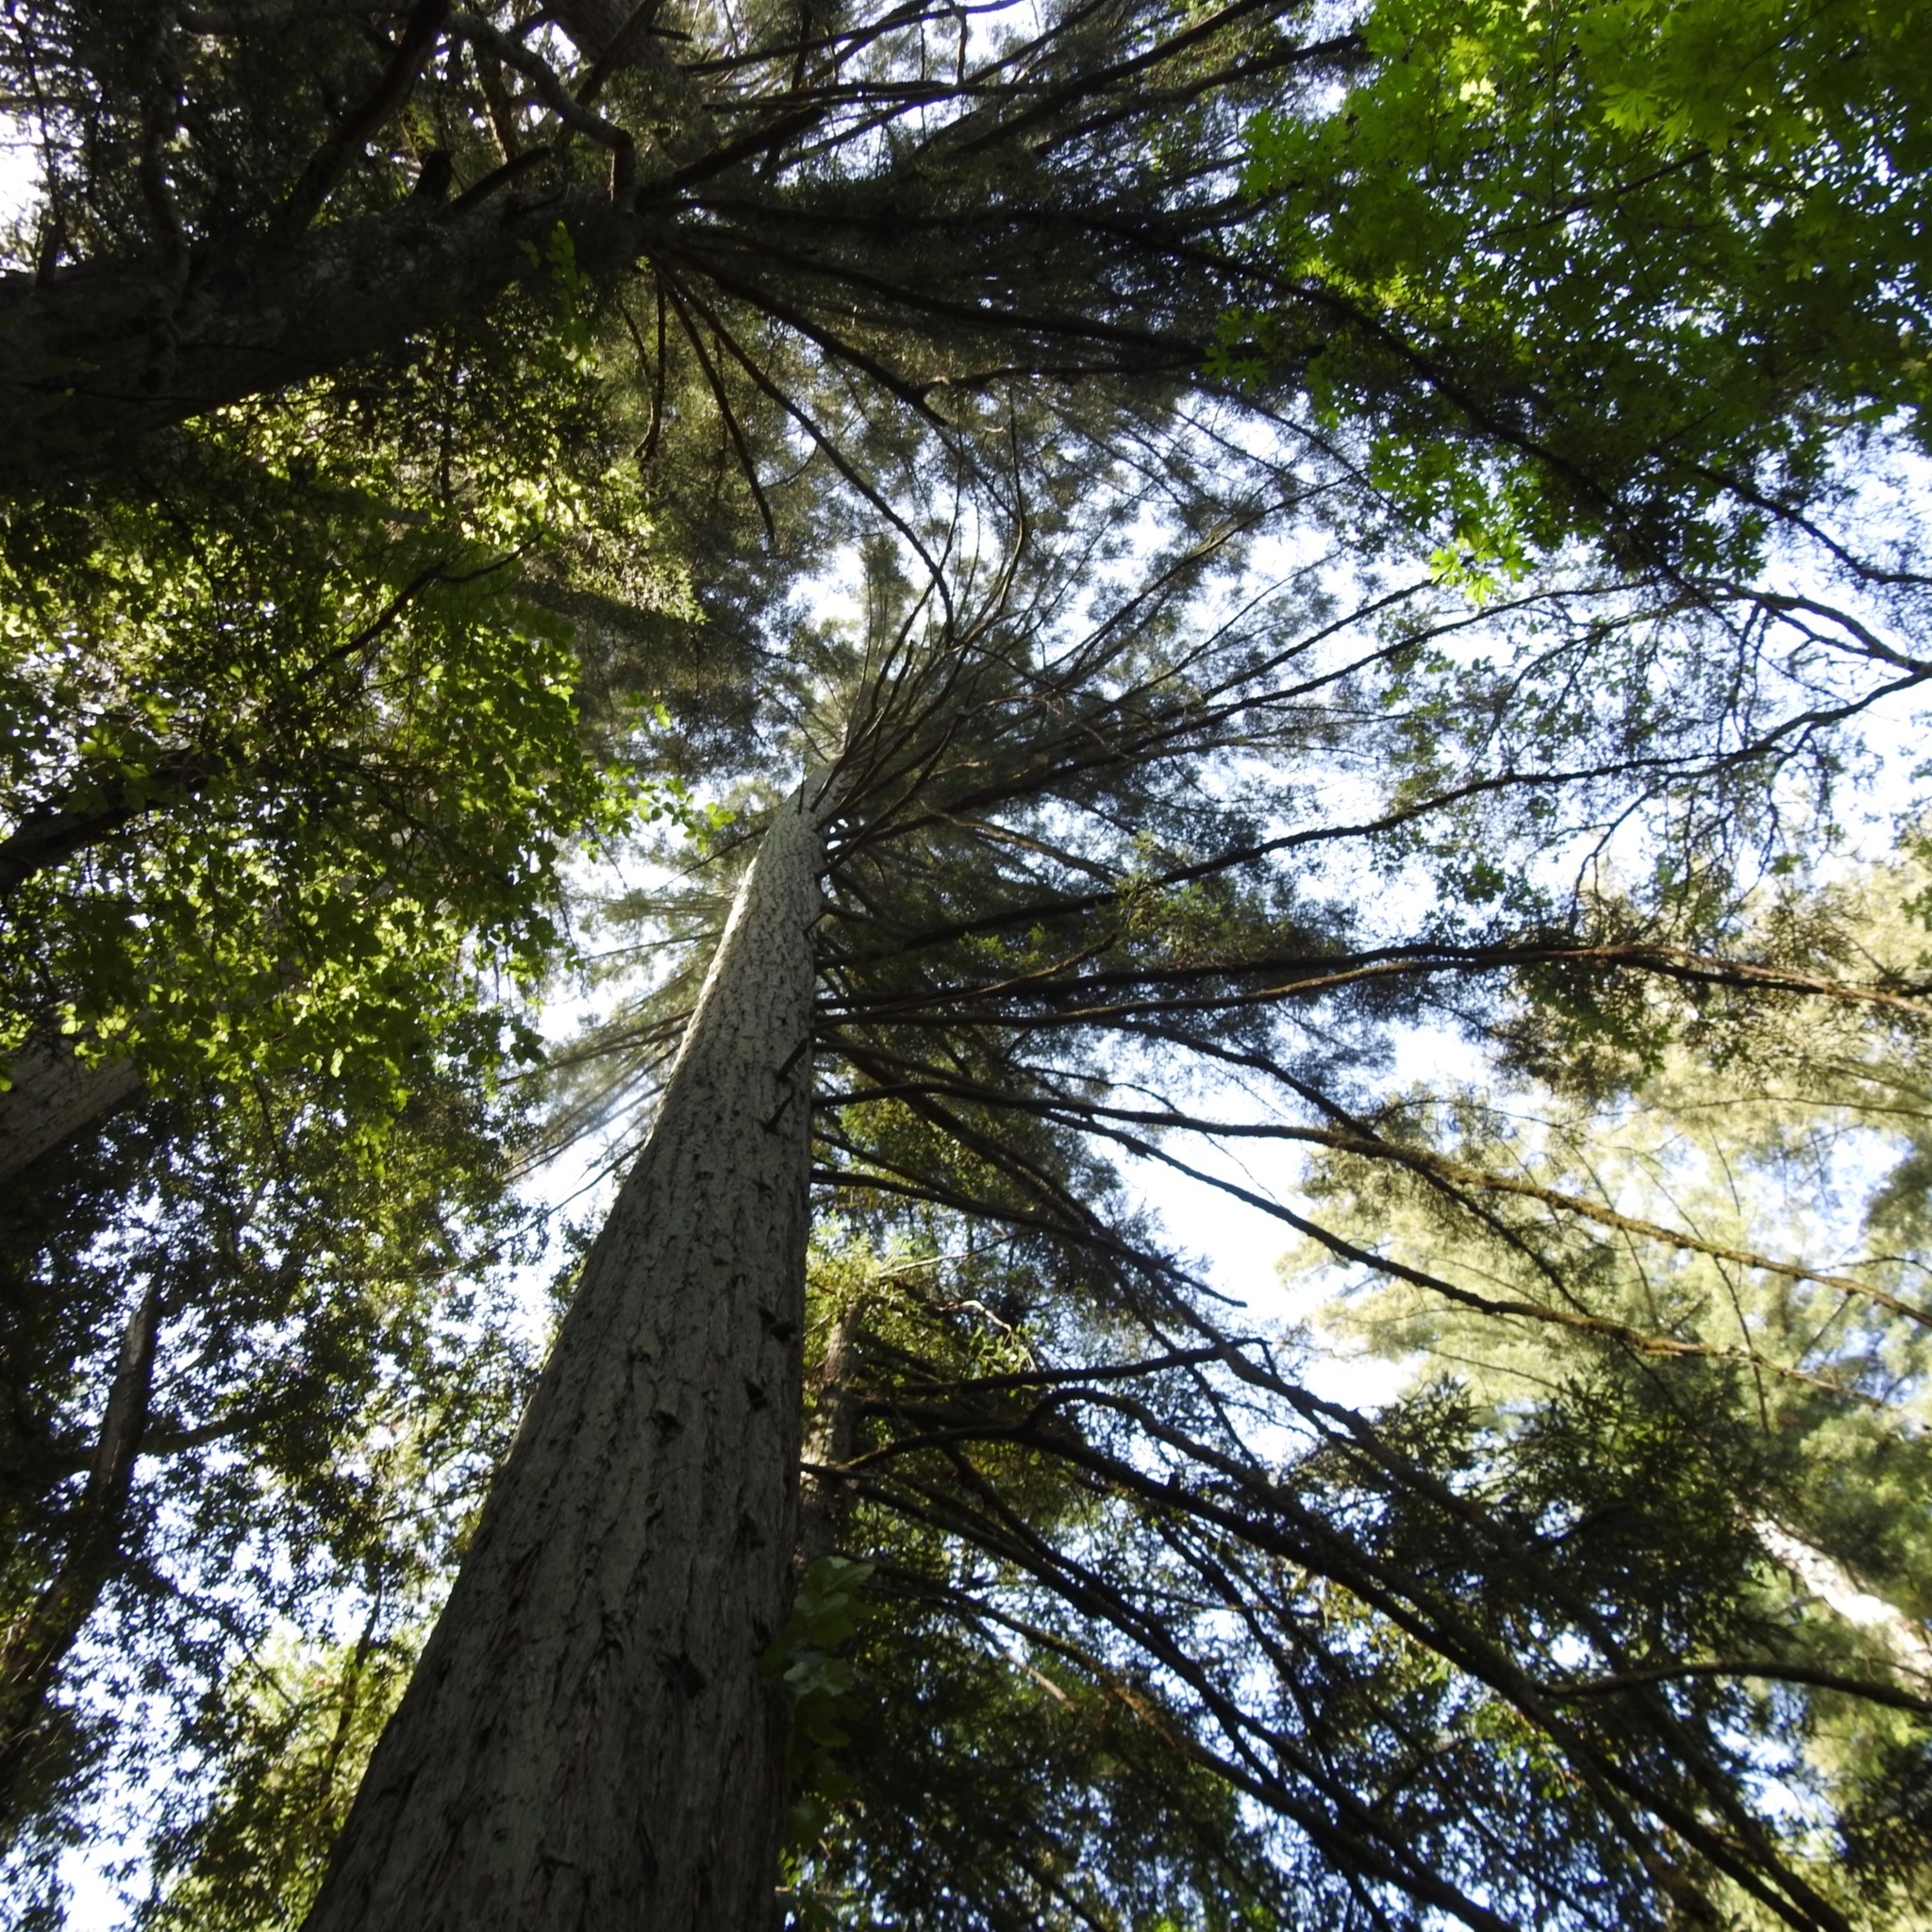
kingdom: Plantae
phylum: Tracheophyta
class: Pinopsida
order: Pinales
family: Pinaceae
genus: Pseudotsuga
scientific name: Pseudotsuga menziesii
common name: Douglas fir
